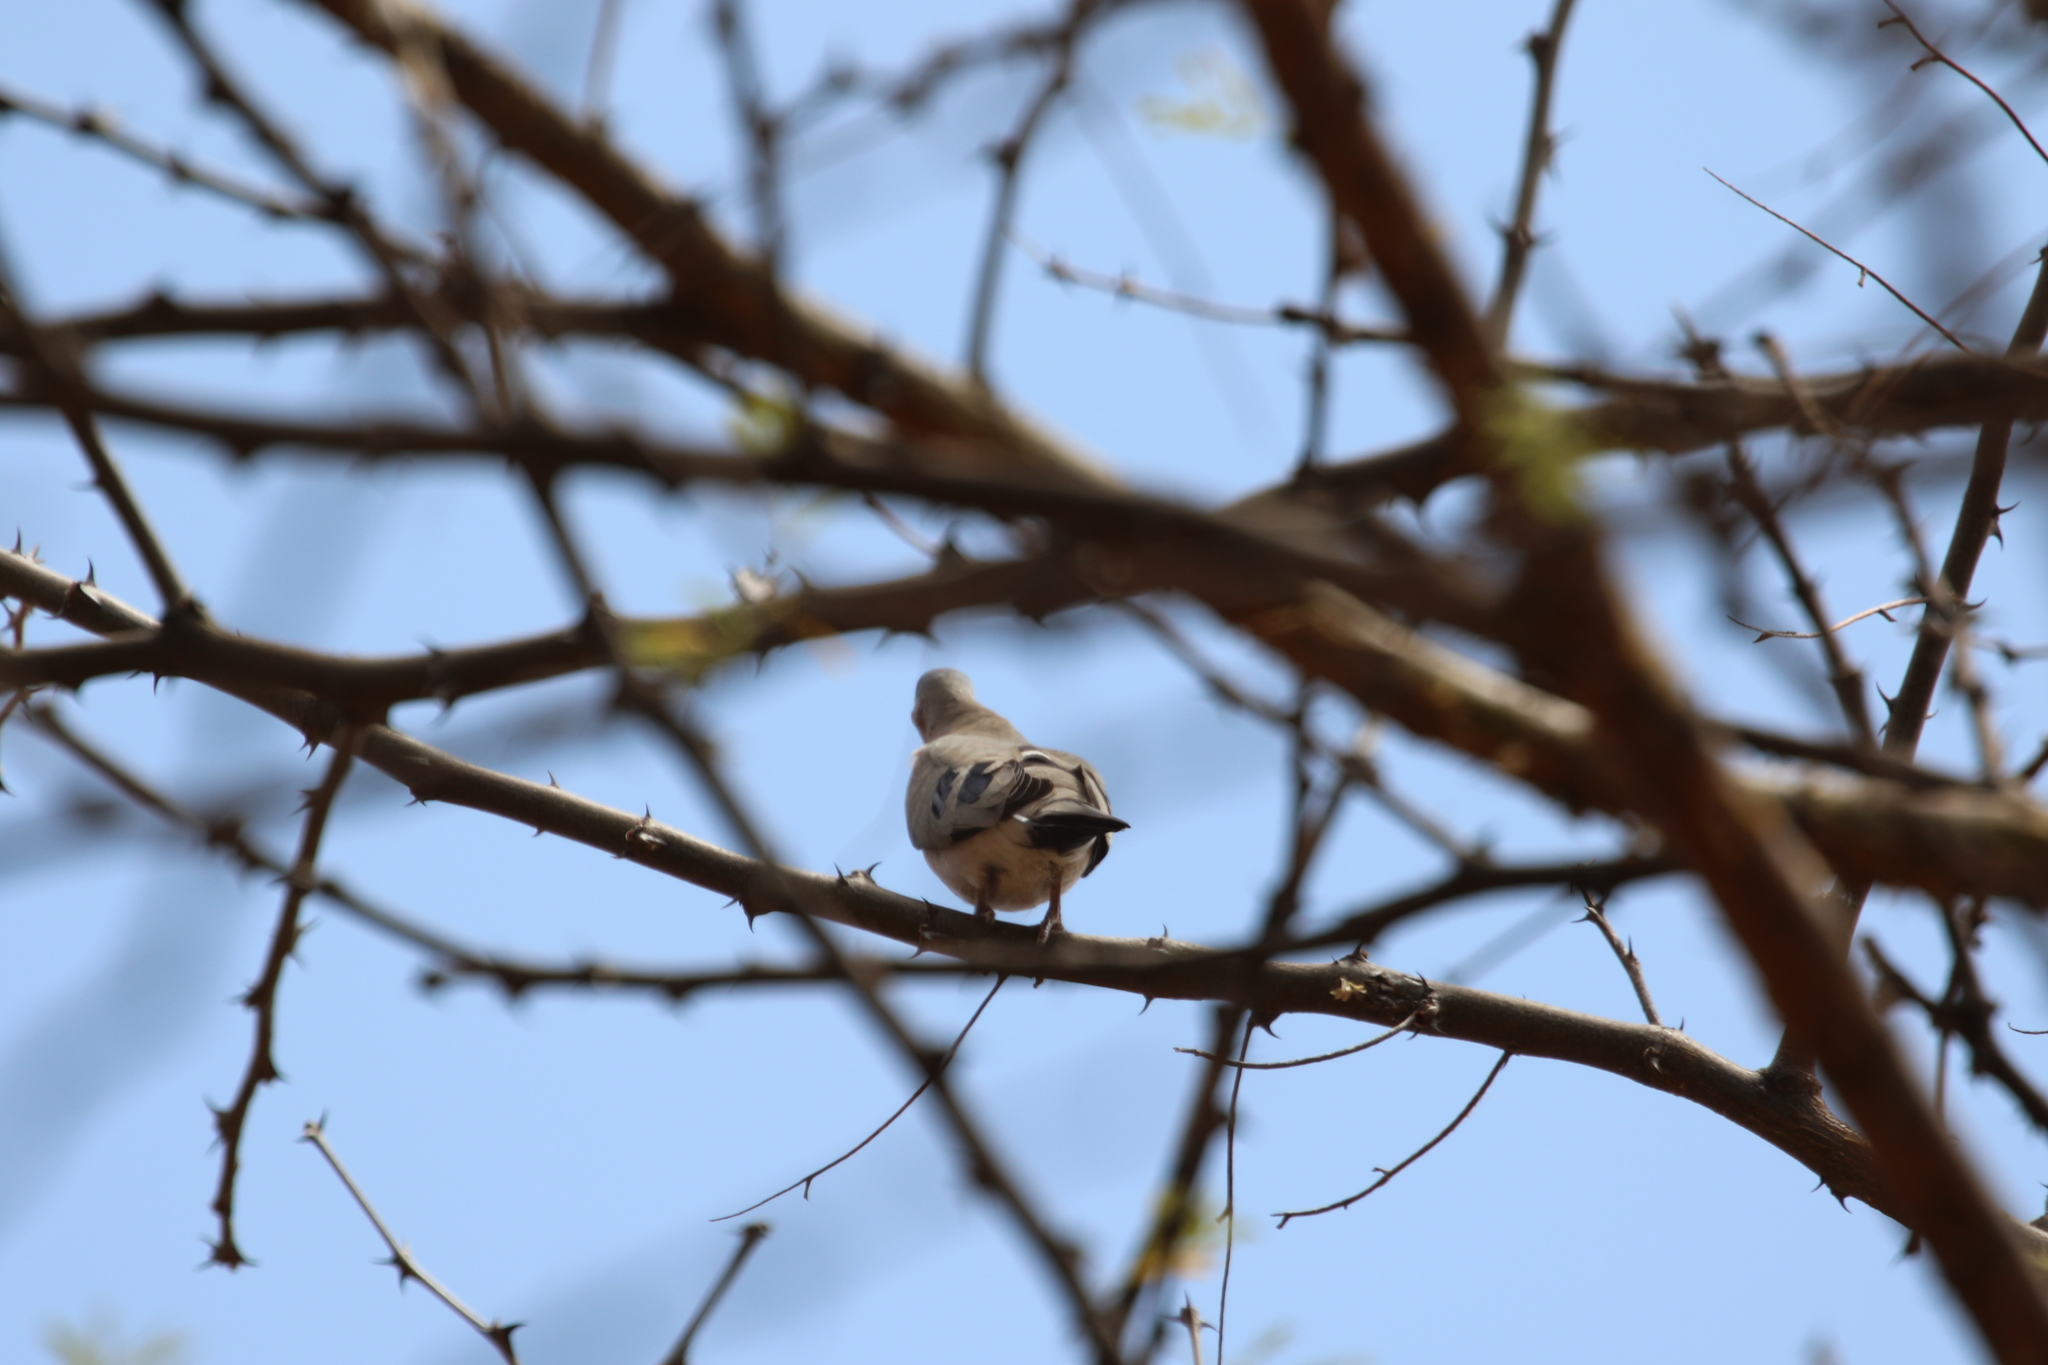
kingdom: Animalia
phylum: Chordata
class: Aves
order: Columbiformes
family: Columbidae
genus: Oena
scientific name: Oena capensis
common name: Namaqua dove
